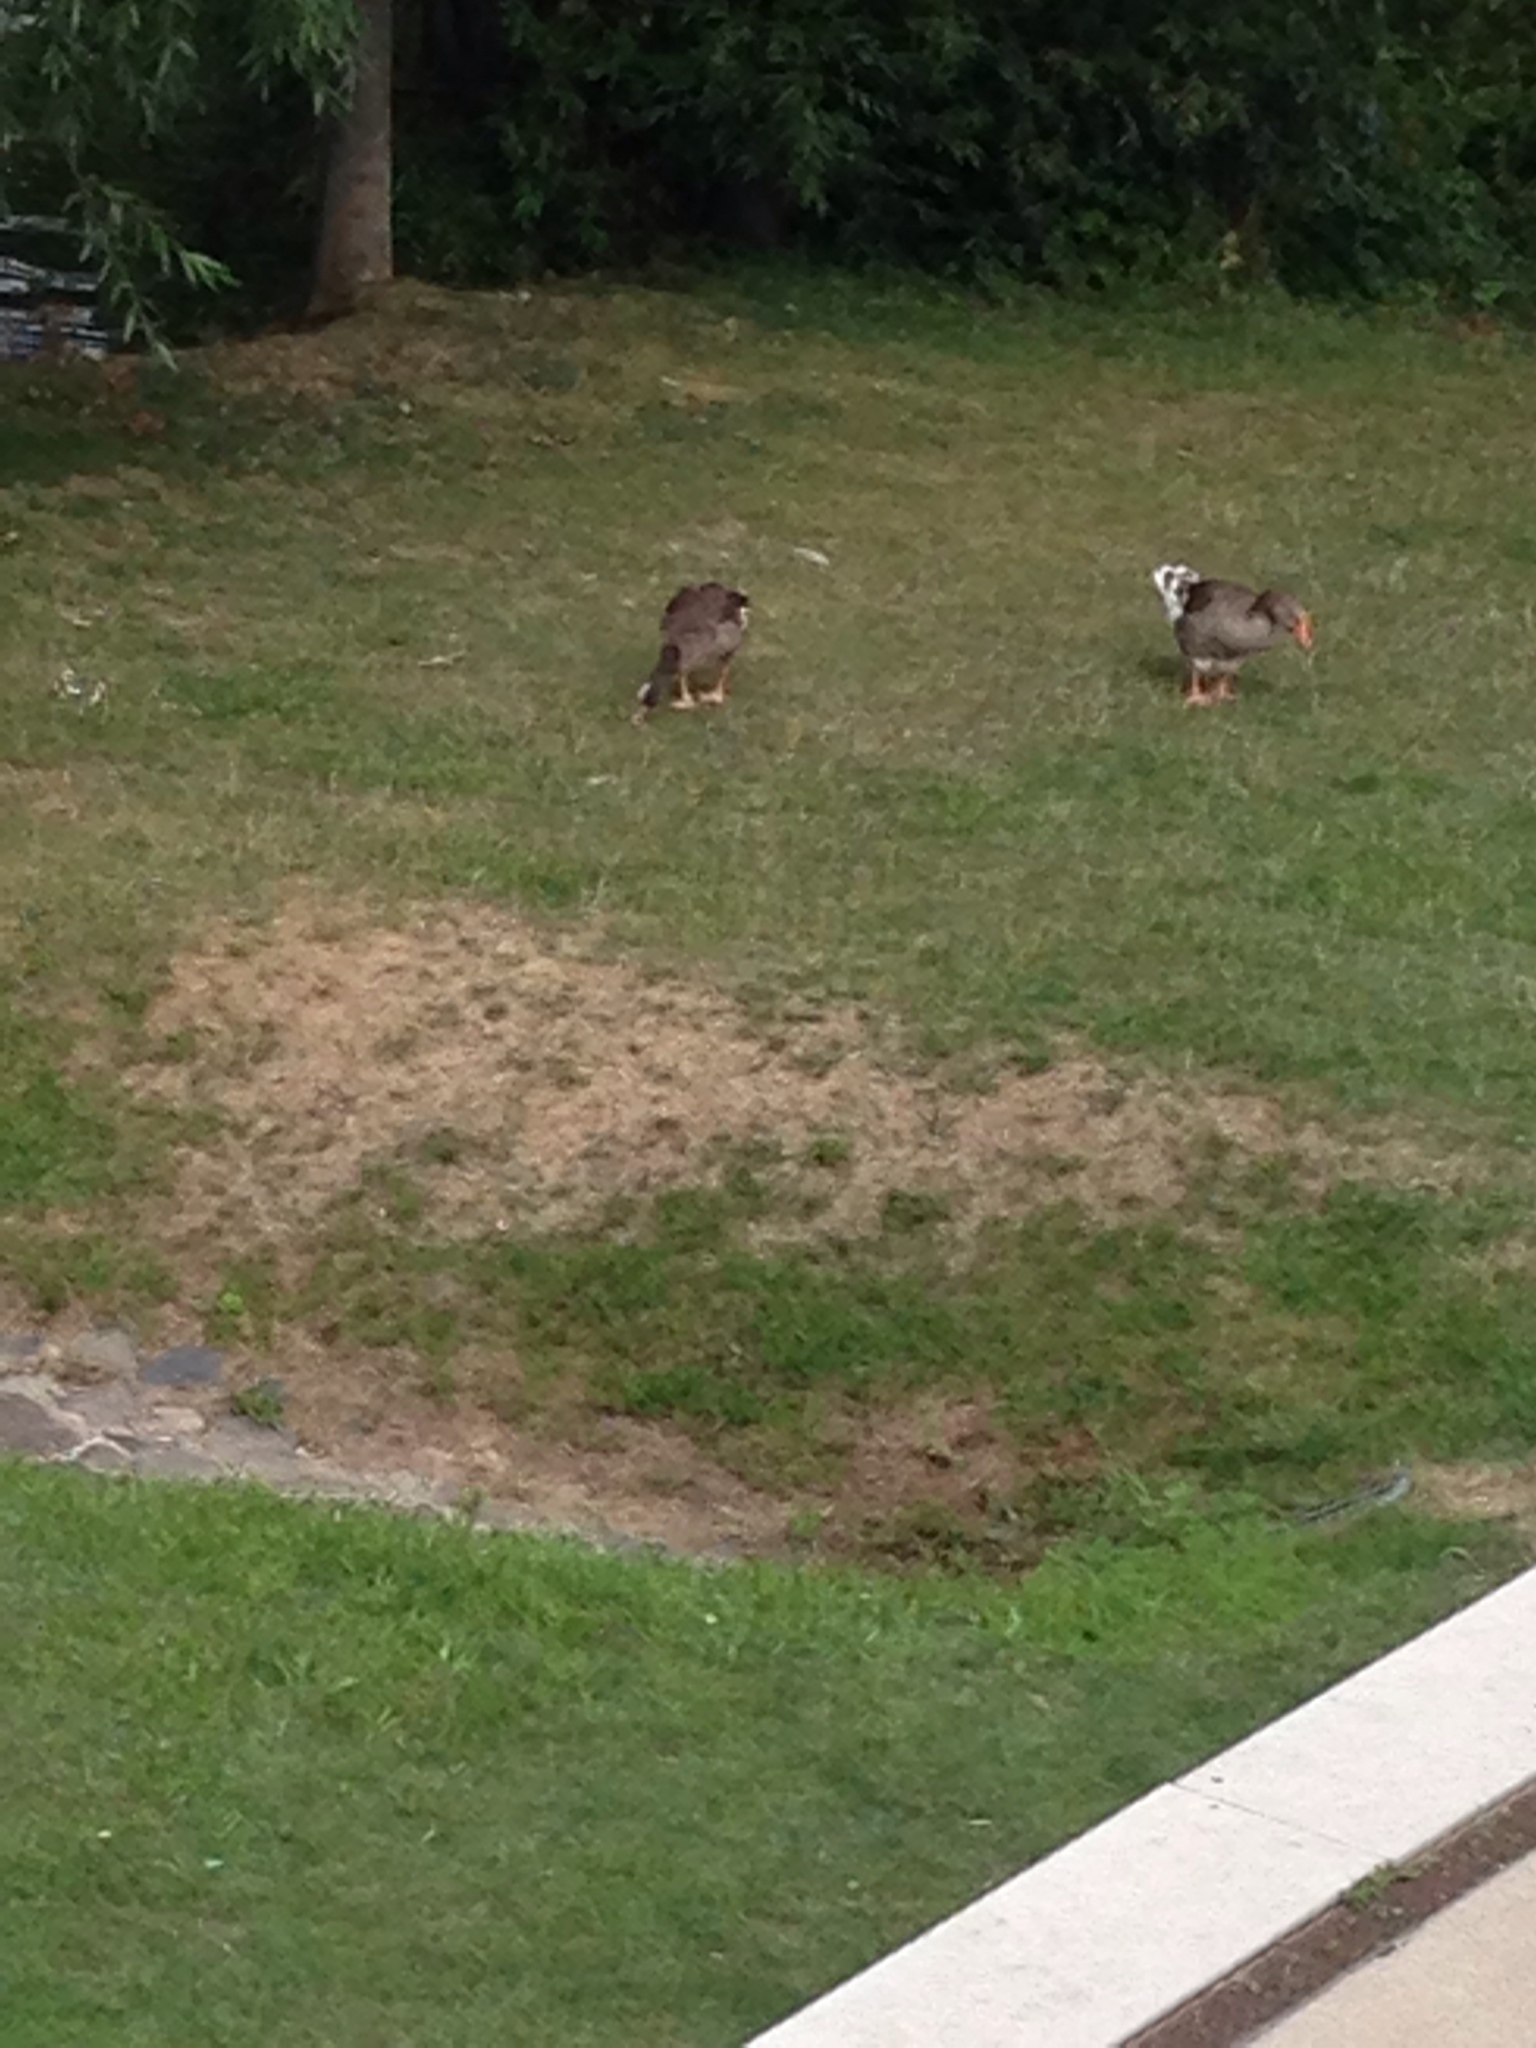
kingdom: Animalia
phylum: Chordata
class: Aves
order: Anseriformes
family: Anatidae
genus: Anser
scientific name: Anser anser
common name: Greylag goose
